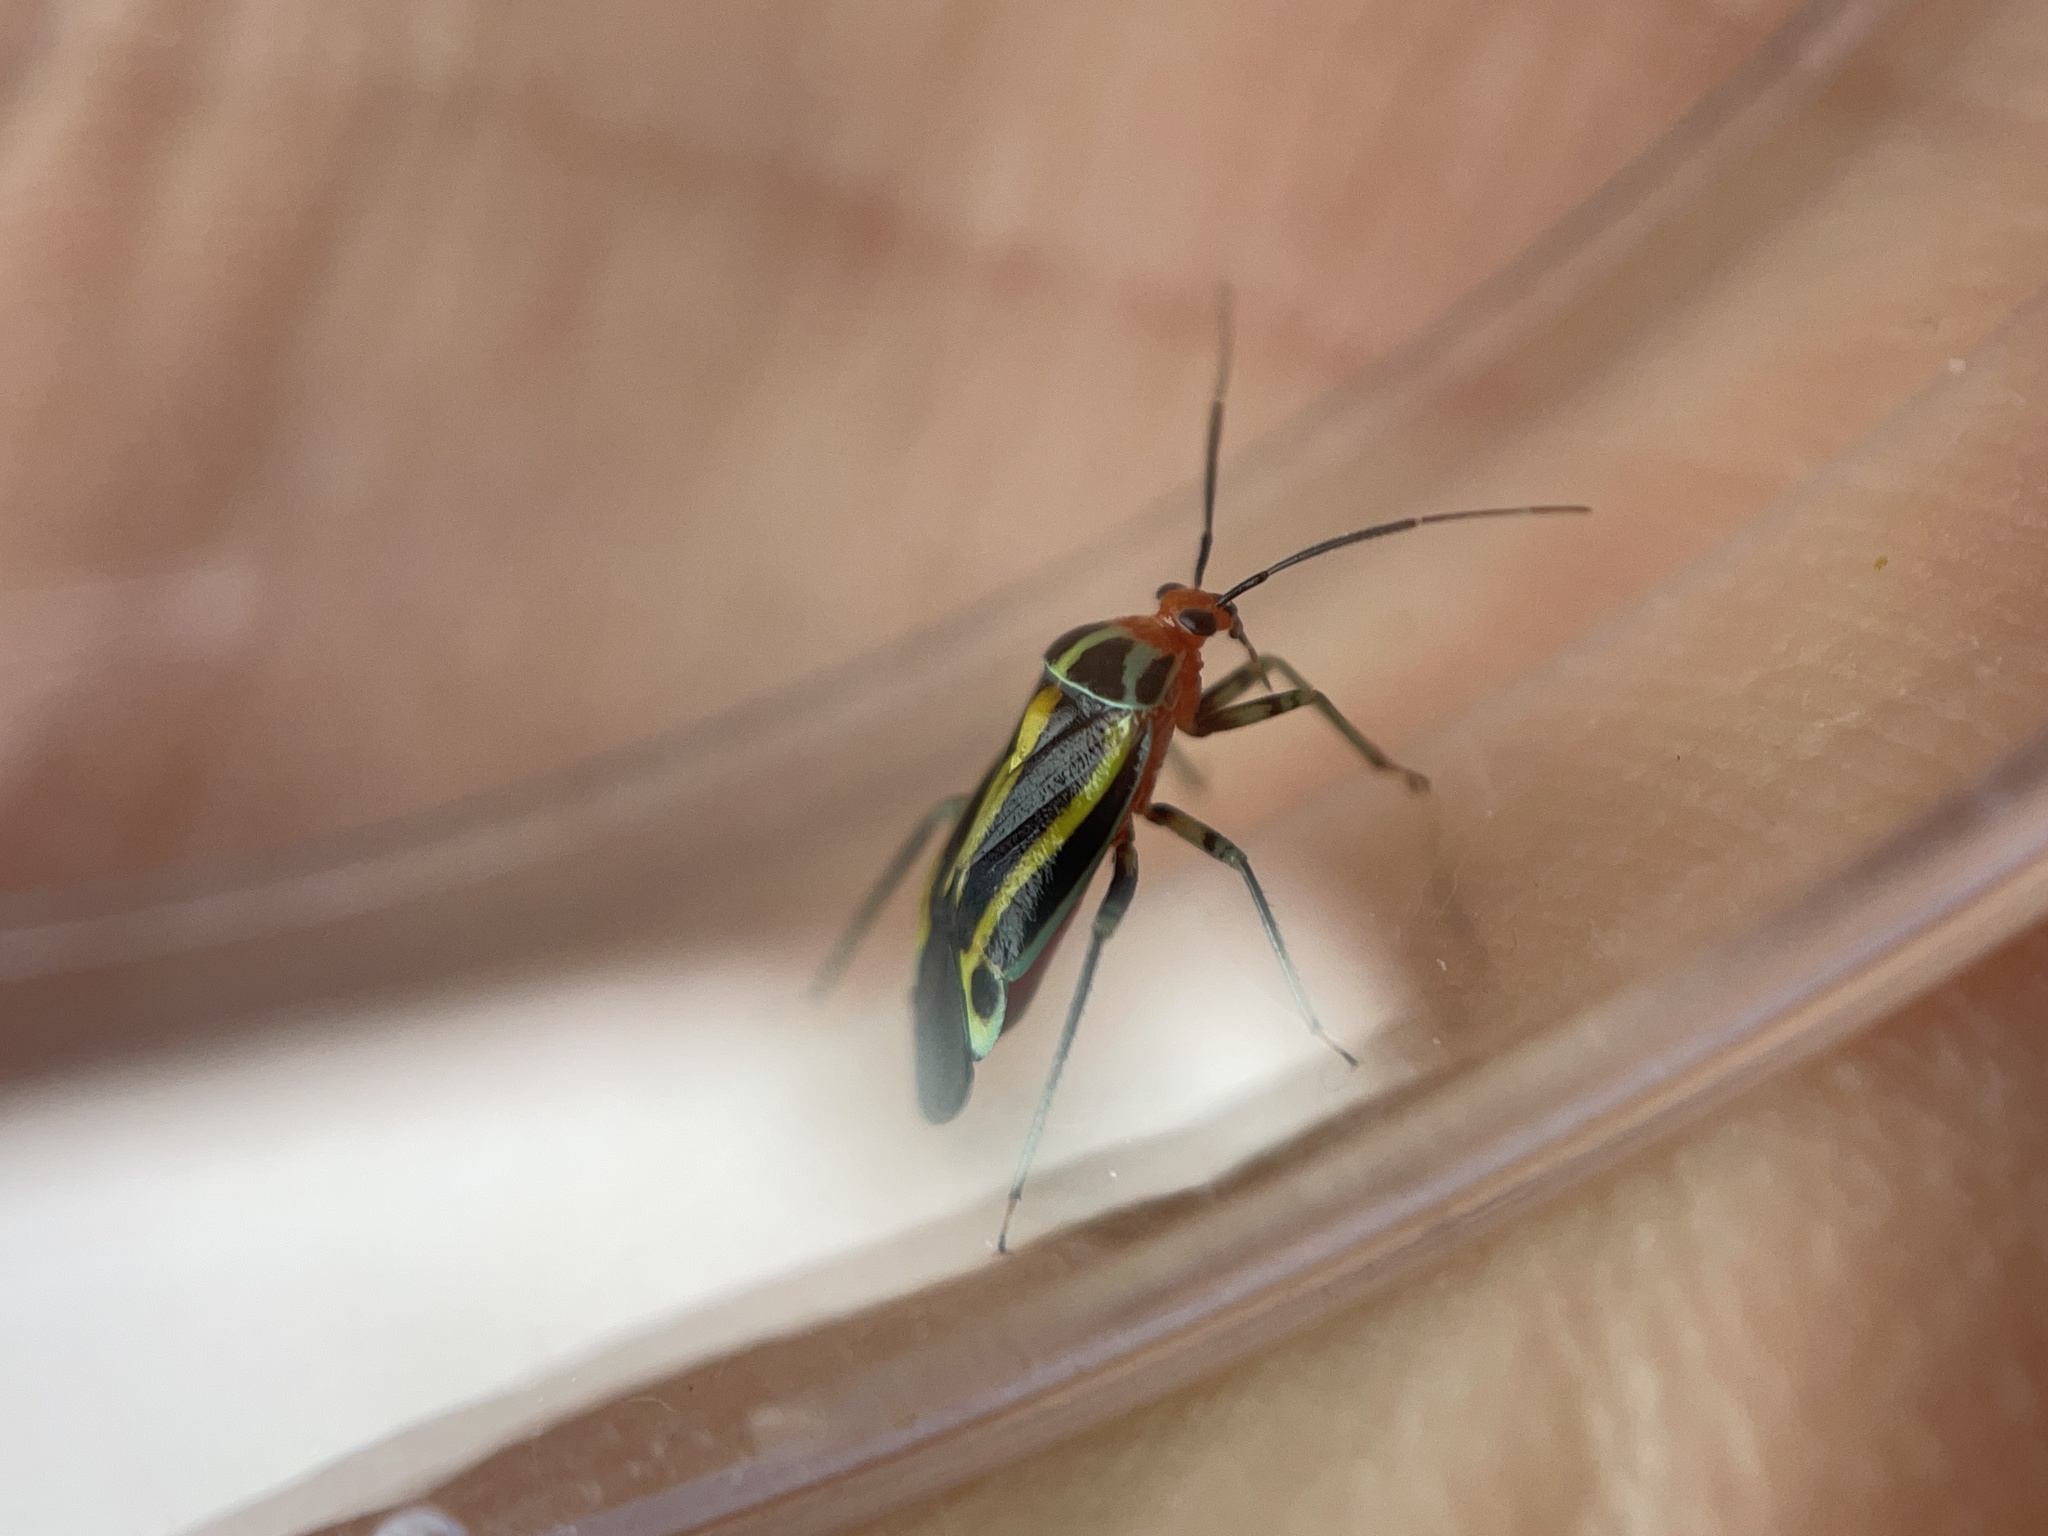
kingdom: Animalia
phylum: Arthropoda
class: Insecta
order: Hemiptera
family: Miridae
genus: Poecilocapsus
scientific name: Poecilocapsus lineatus
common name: Four-lined plant bug
